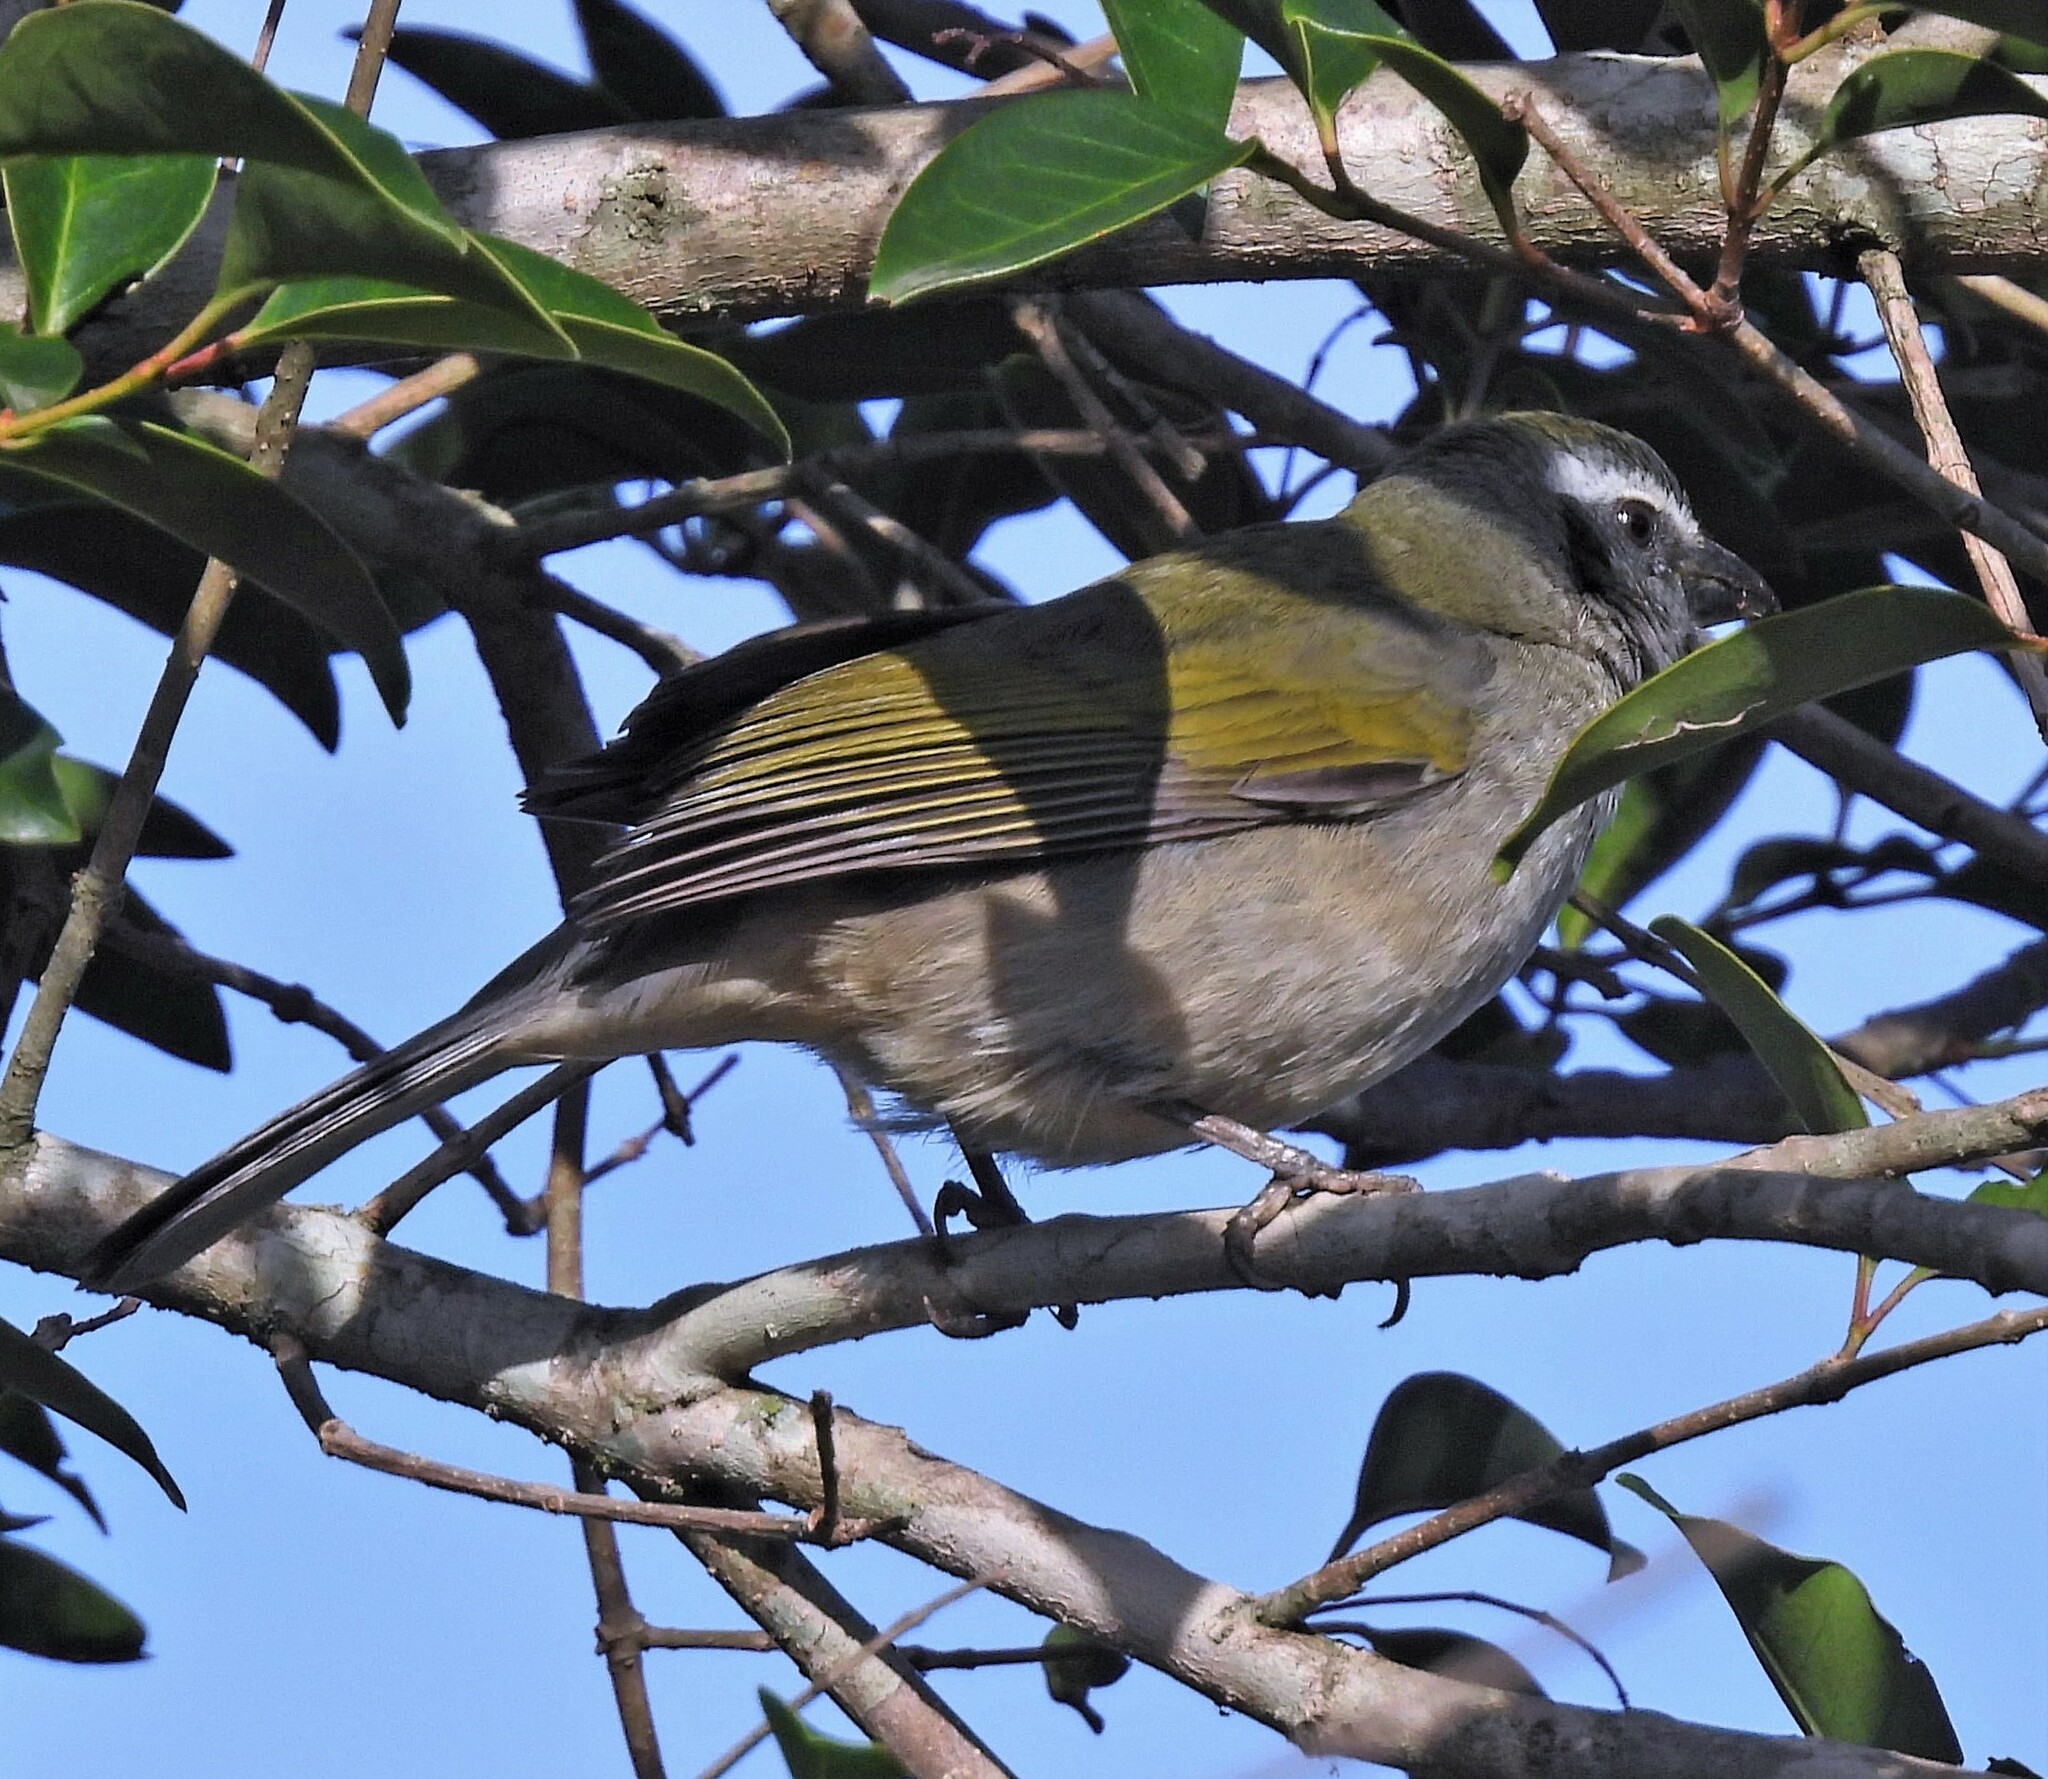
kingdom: Animalia
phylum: Chordata
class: Aves
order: Passeriformes
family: Thraupidae
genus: Saltator
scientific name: Saltator similis
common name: Green-winged saltator
